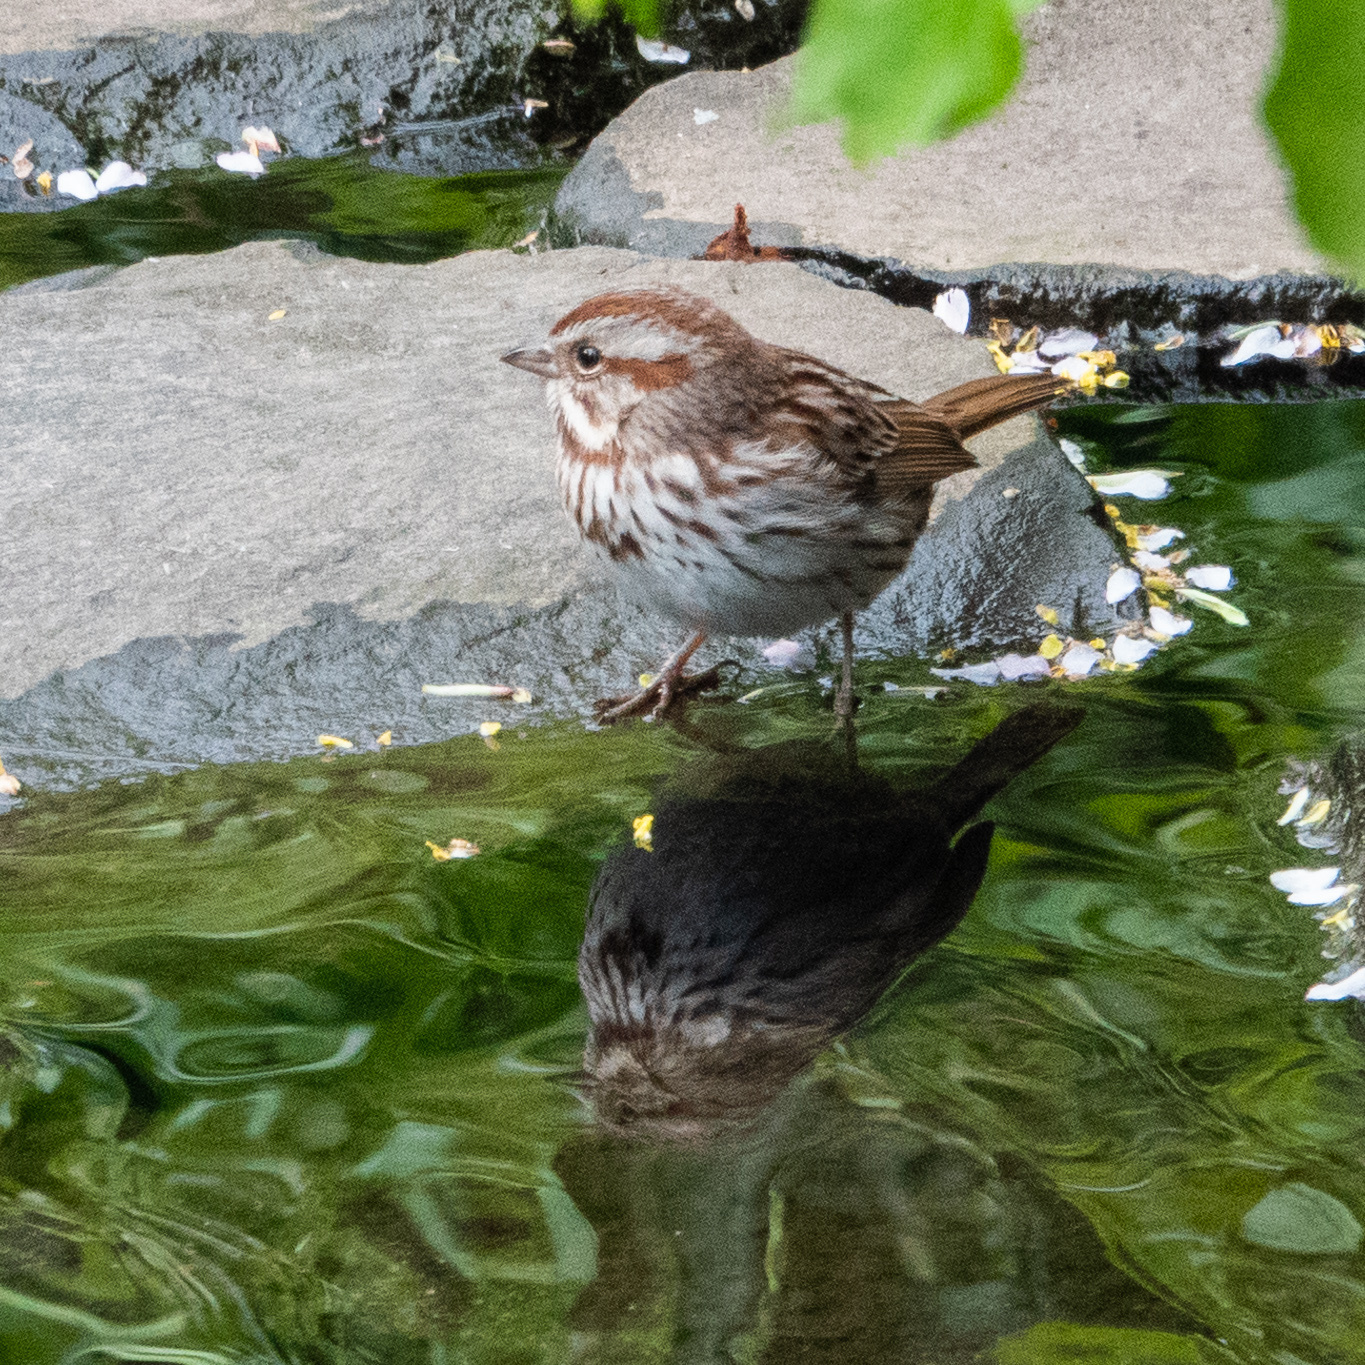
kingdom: Animalia
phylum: Chordata
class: Aves
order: Passeriformes
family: Passerellidae
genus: Melospiza
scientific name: Melospiza melodia
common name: Song sparrow
